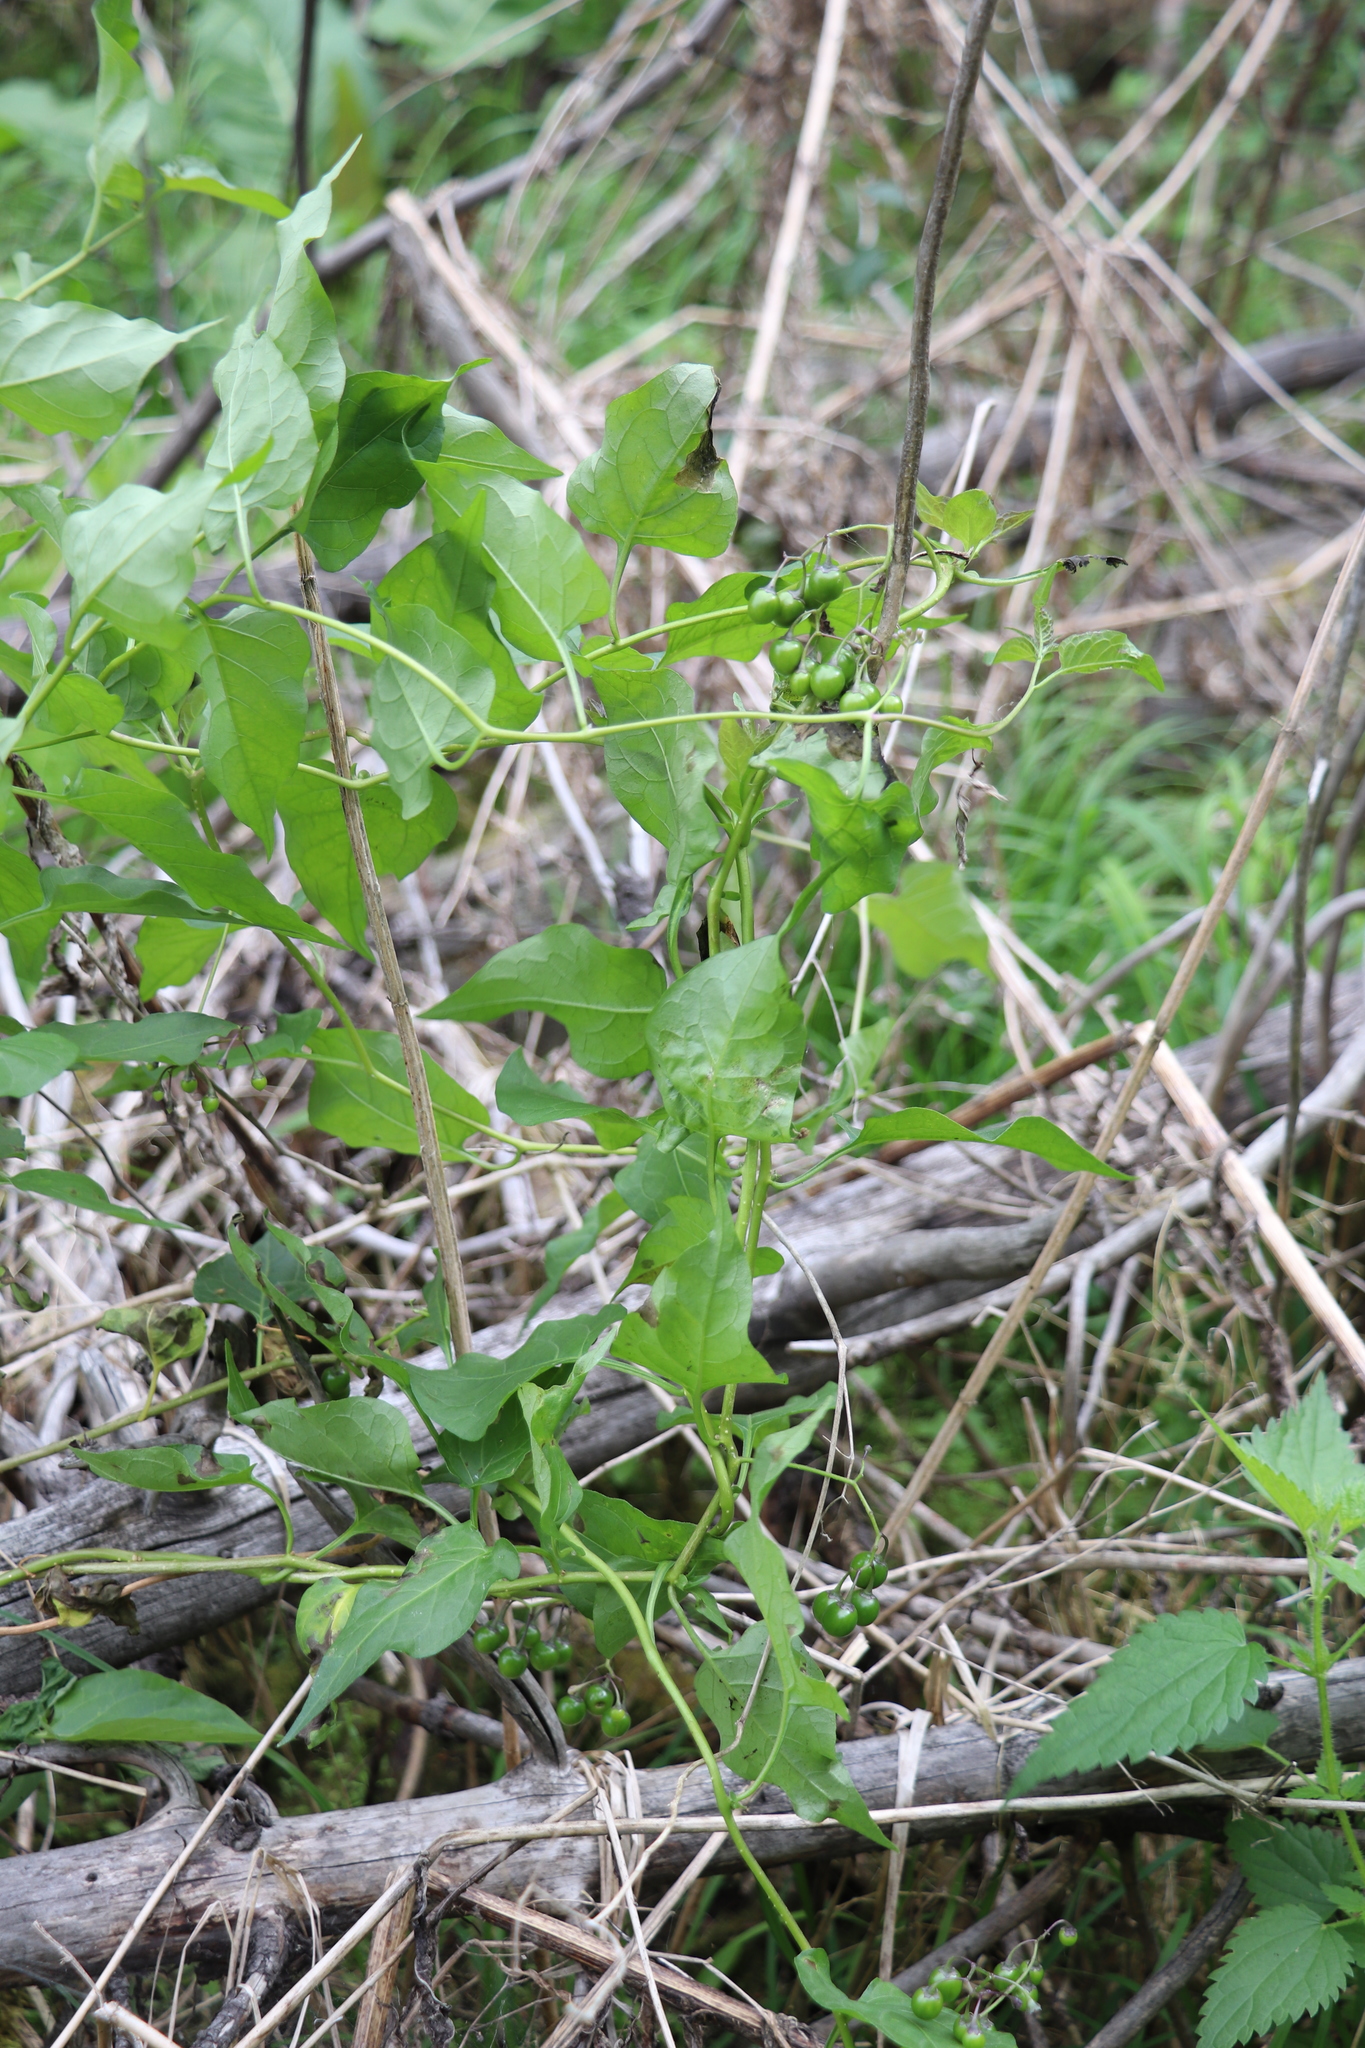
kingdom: Plantae
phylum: Tracheophyta
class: Magnoliopsida
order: Solanales
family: Solanaceae
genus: Solanum
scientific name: Solanum dulcamara
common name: Climbing nightshade
